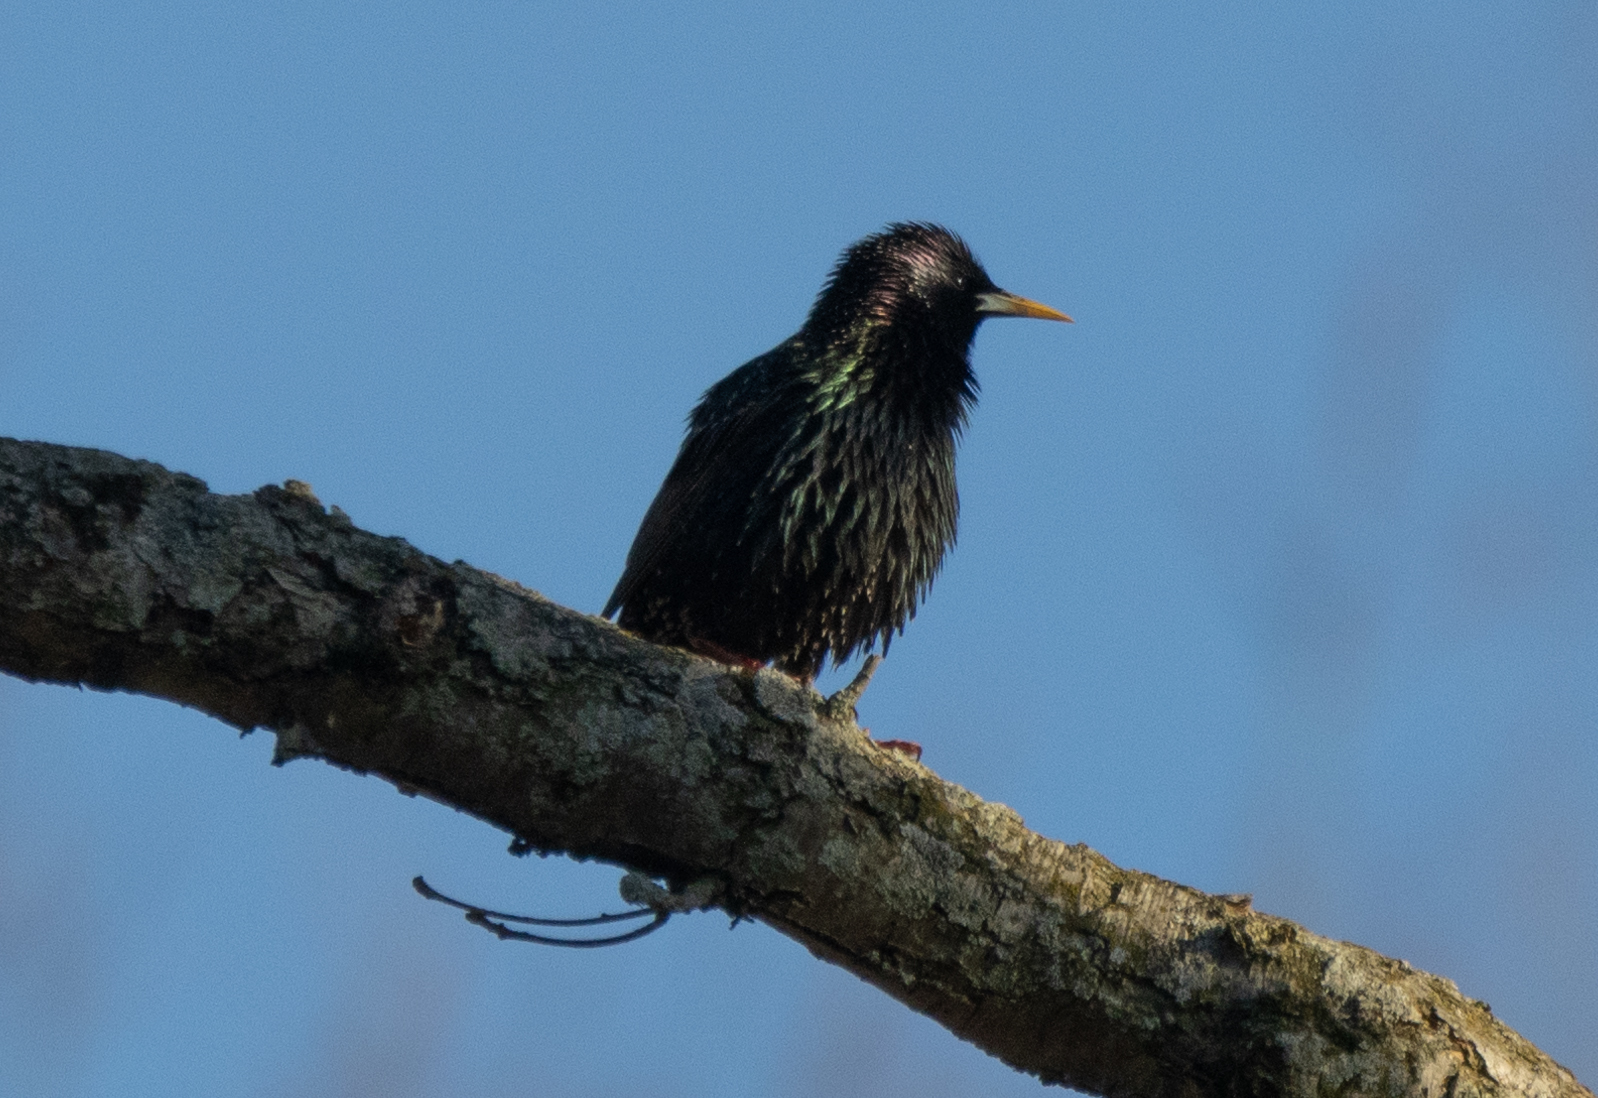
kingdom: Animalia
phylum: Chordata
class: Aves
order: Passeriformes
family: Sturnidae
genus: Sturnus
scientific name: Sturnus vulgaris
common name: Common starling
